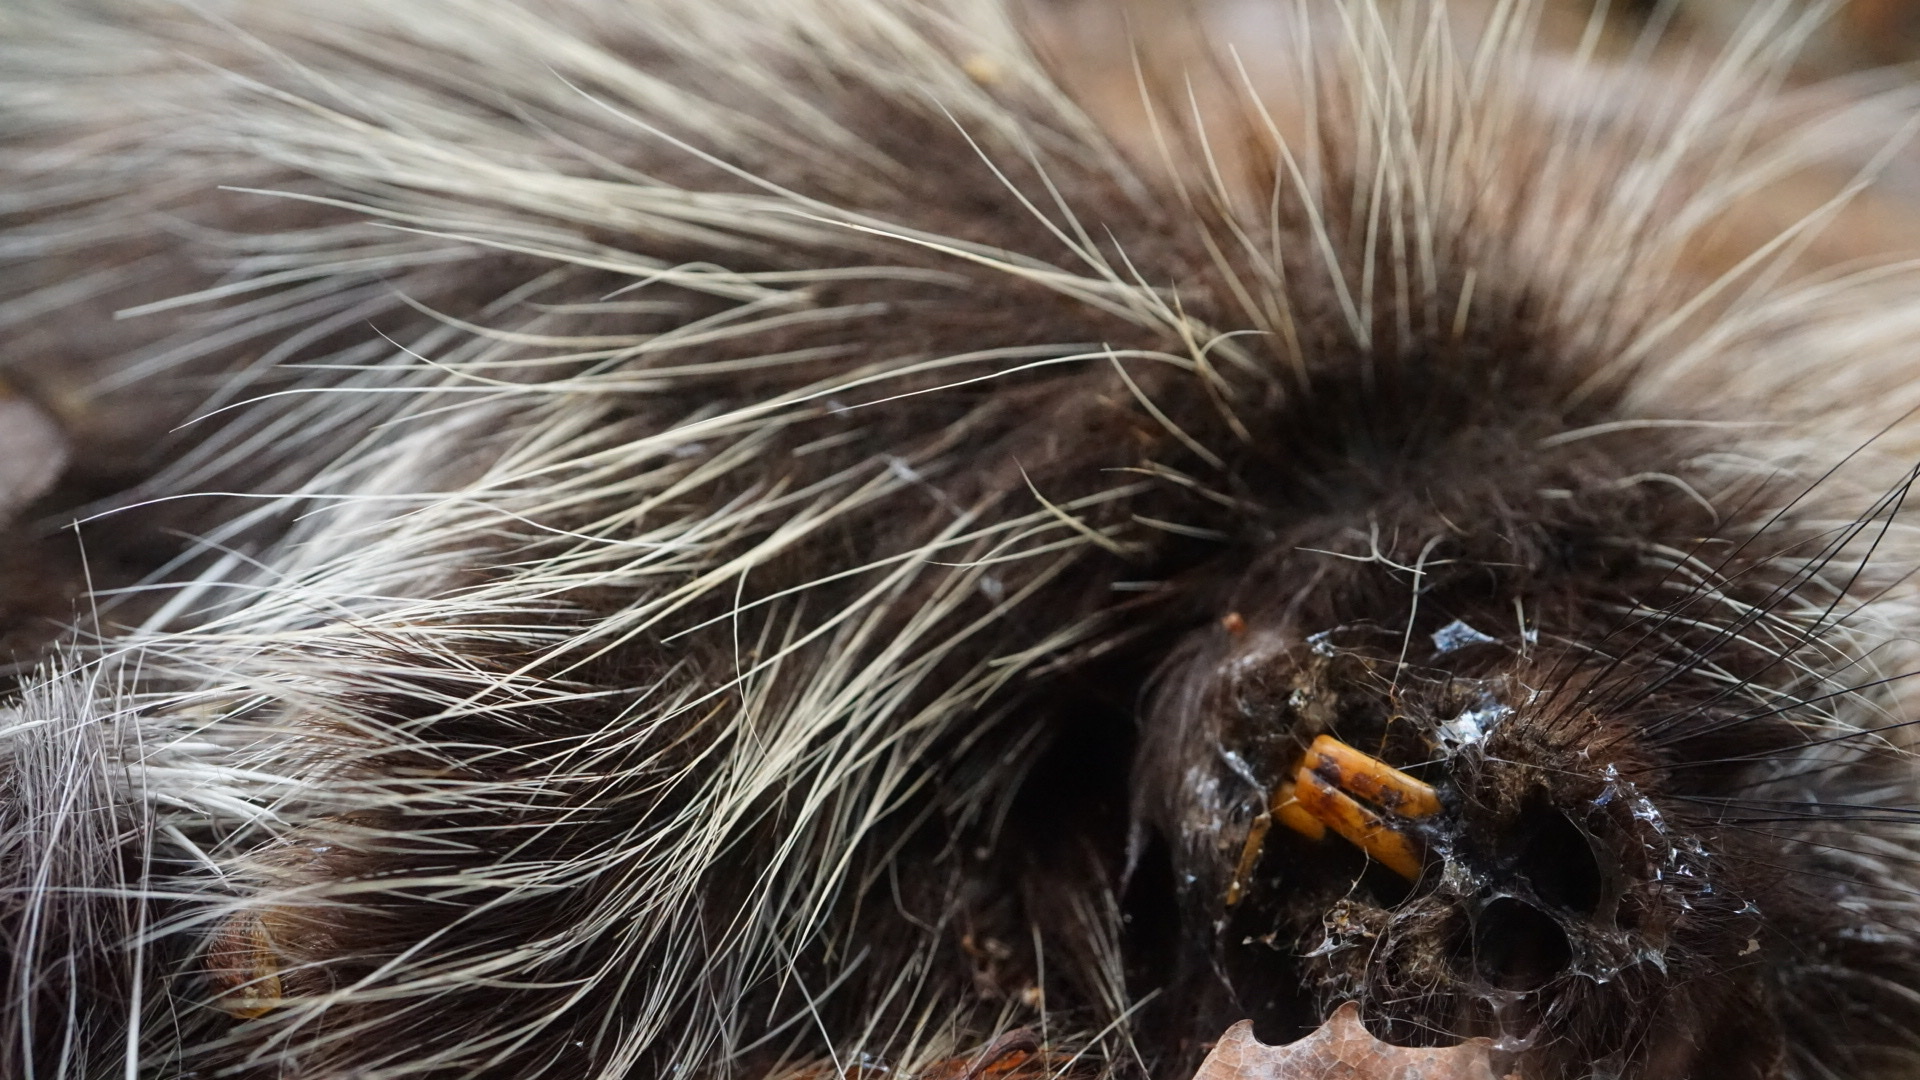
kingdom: Animalia
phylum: Chordata
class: Mammalia
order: Rodentia
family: Erethizontidae
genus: Erethizon
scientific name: Erethizon dorsatus
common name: North american porcupine
